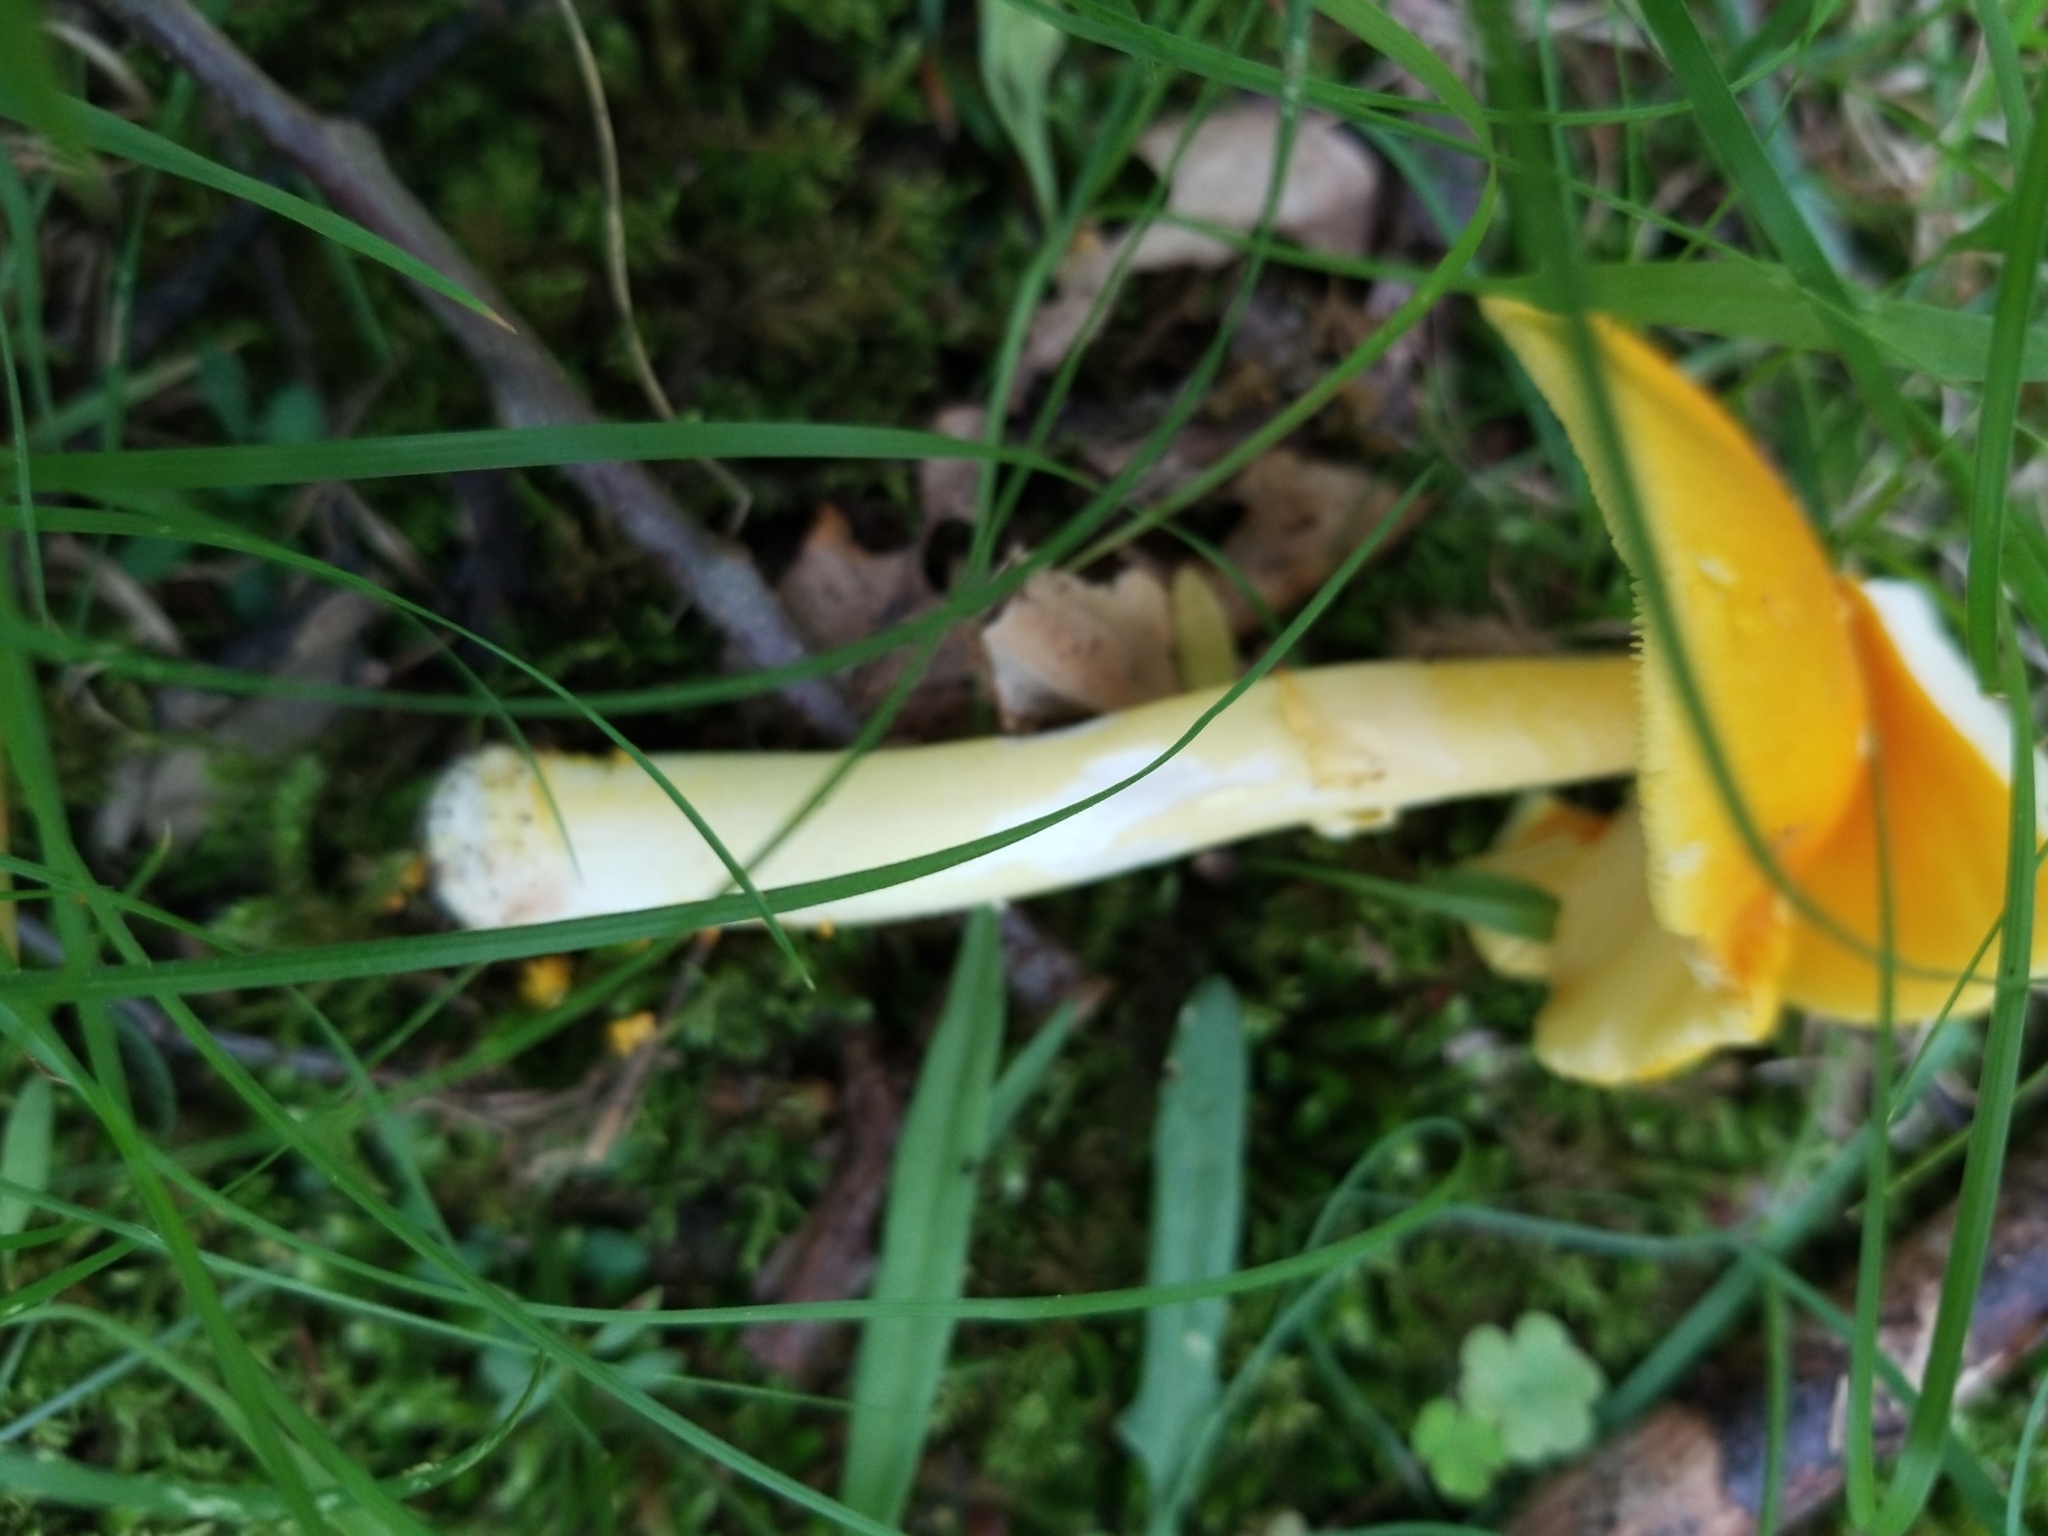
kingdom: Fungi
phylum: Basidiomycota
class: Agaricomycetes
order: Agaricales
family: Amanitaceae
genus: Amanita
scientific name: Amanita flavoconia
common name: Yellow patches
